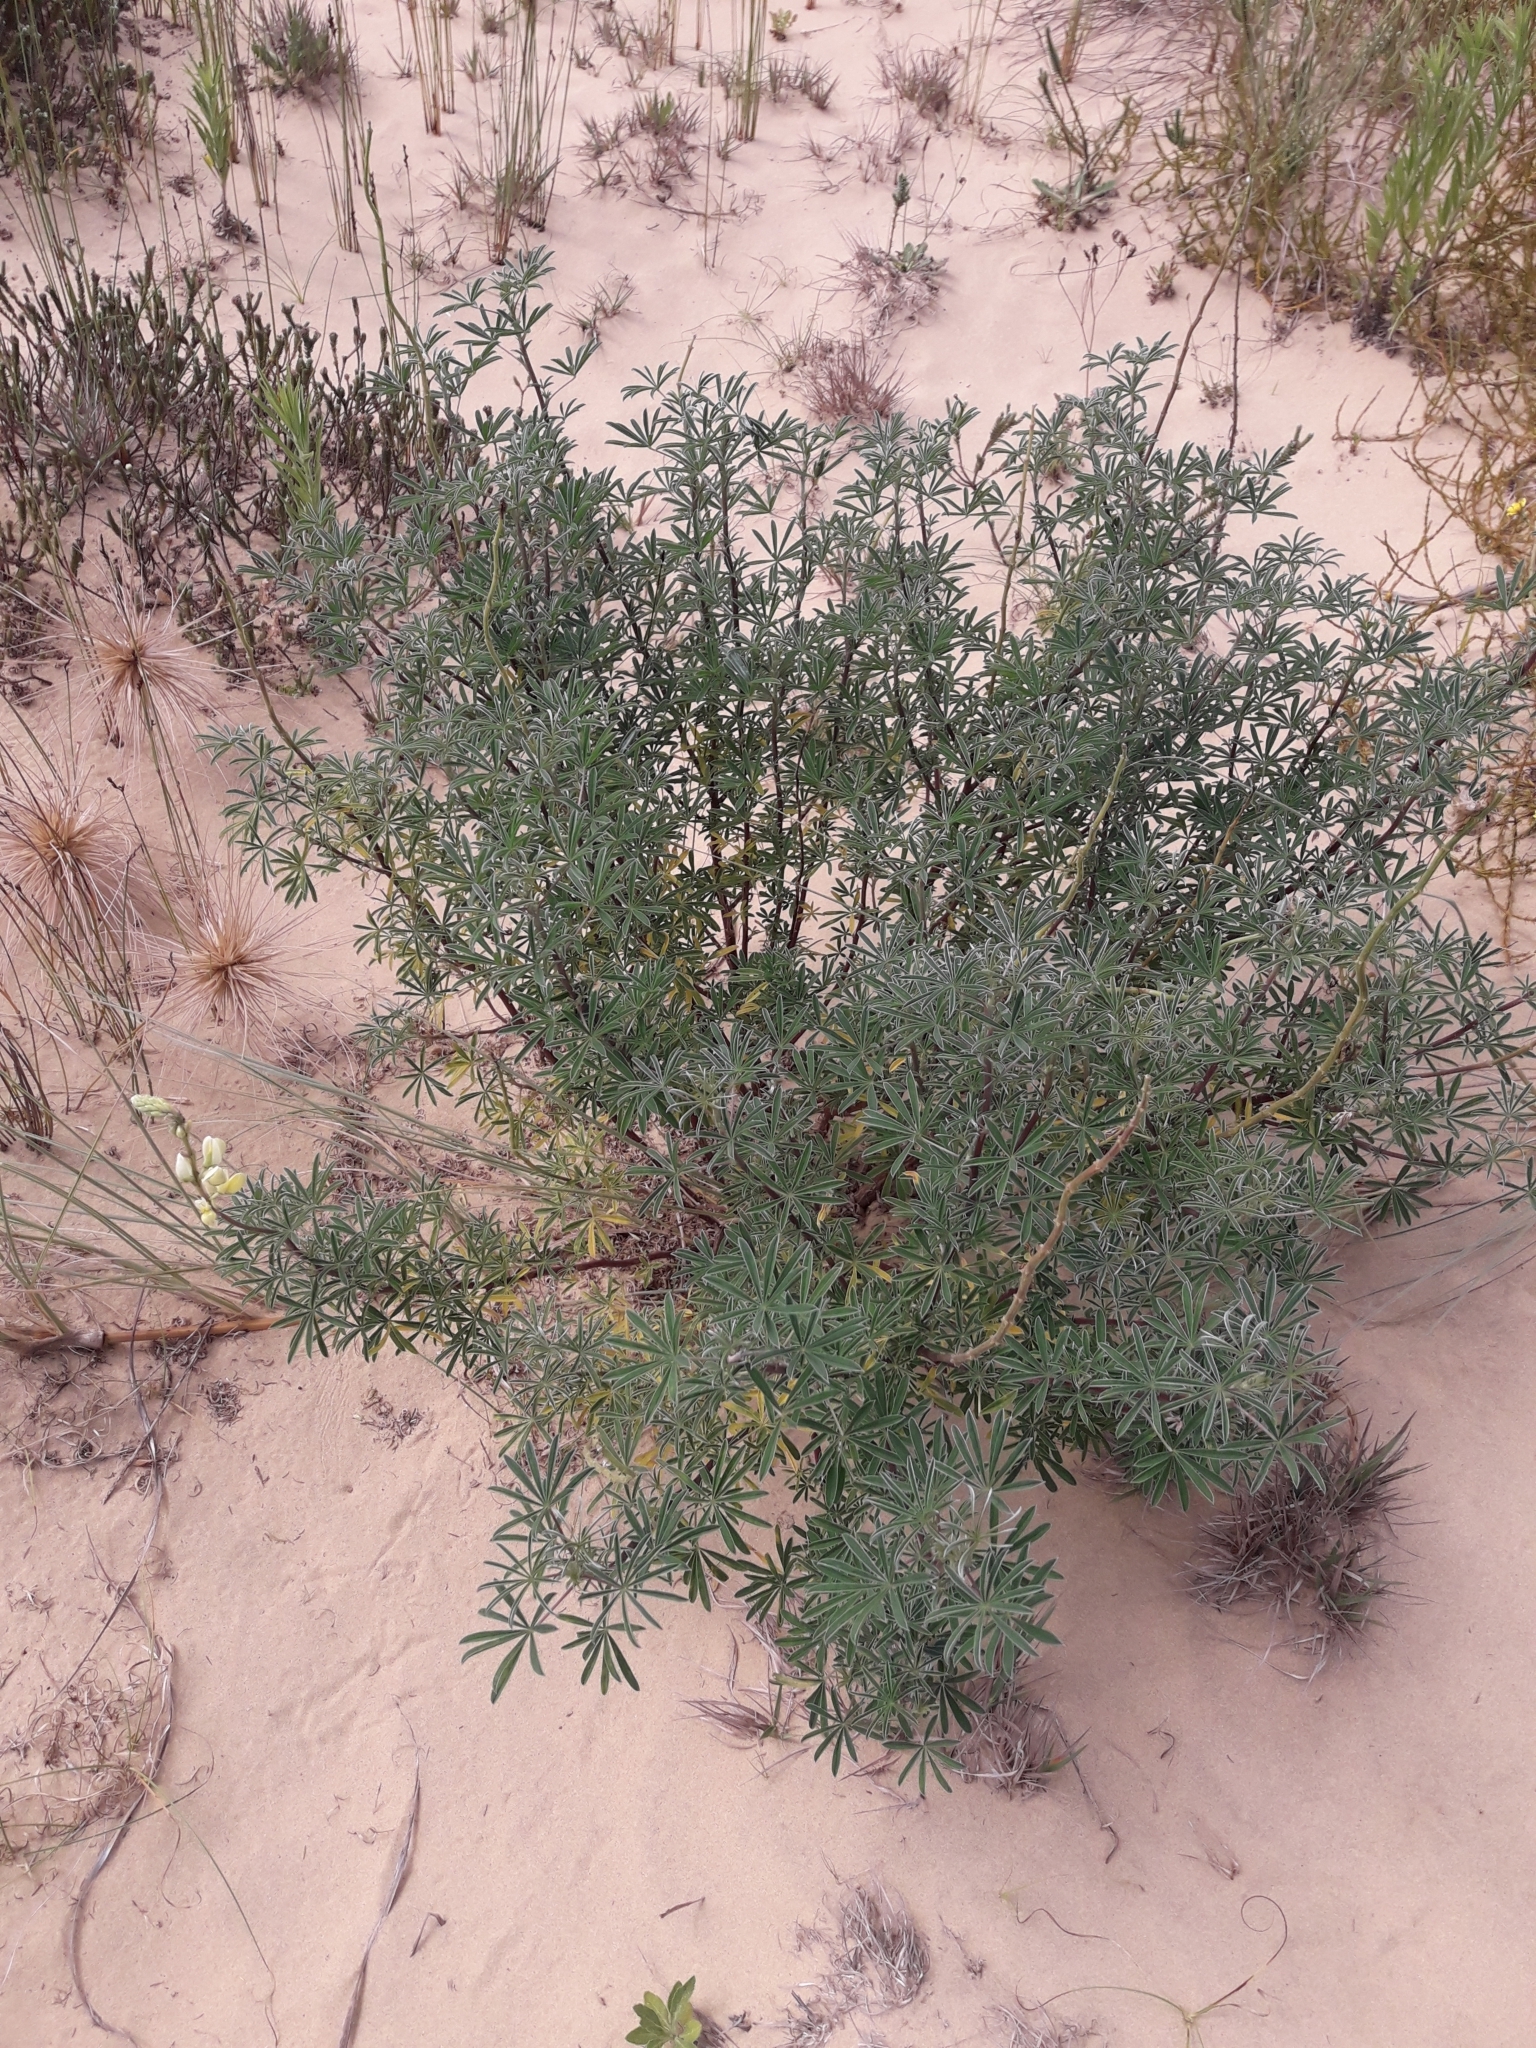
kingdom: Plantae
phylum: Tracheophyta
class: Magnoliopsida
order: Fabales
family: Fabaceae
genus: Lupinus
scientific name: Lupinus arboreus
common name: Yellow bush lupine
